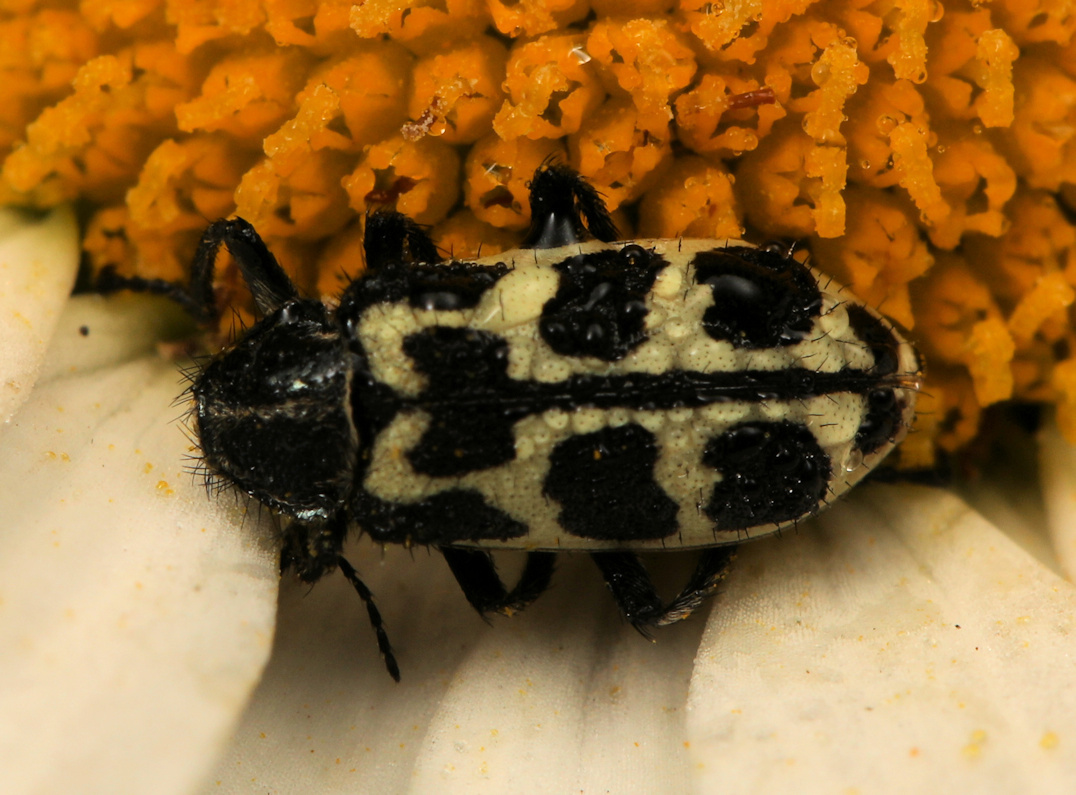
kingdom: Animalia
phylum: Arthropoda
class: Insecta
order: Coleoptera
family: Melyridae
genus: Astylus
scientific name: Astylus atromaculatus
